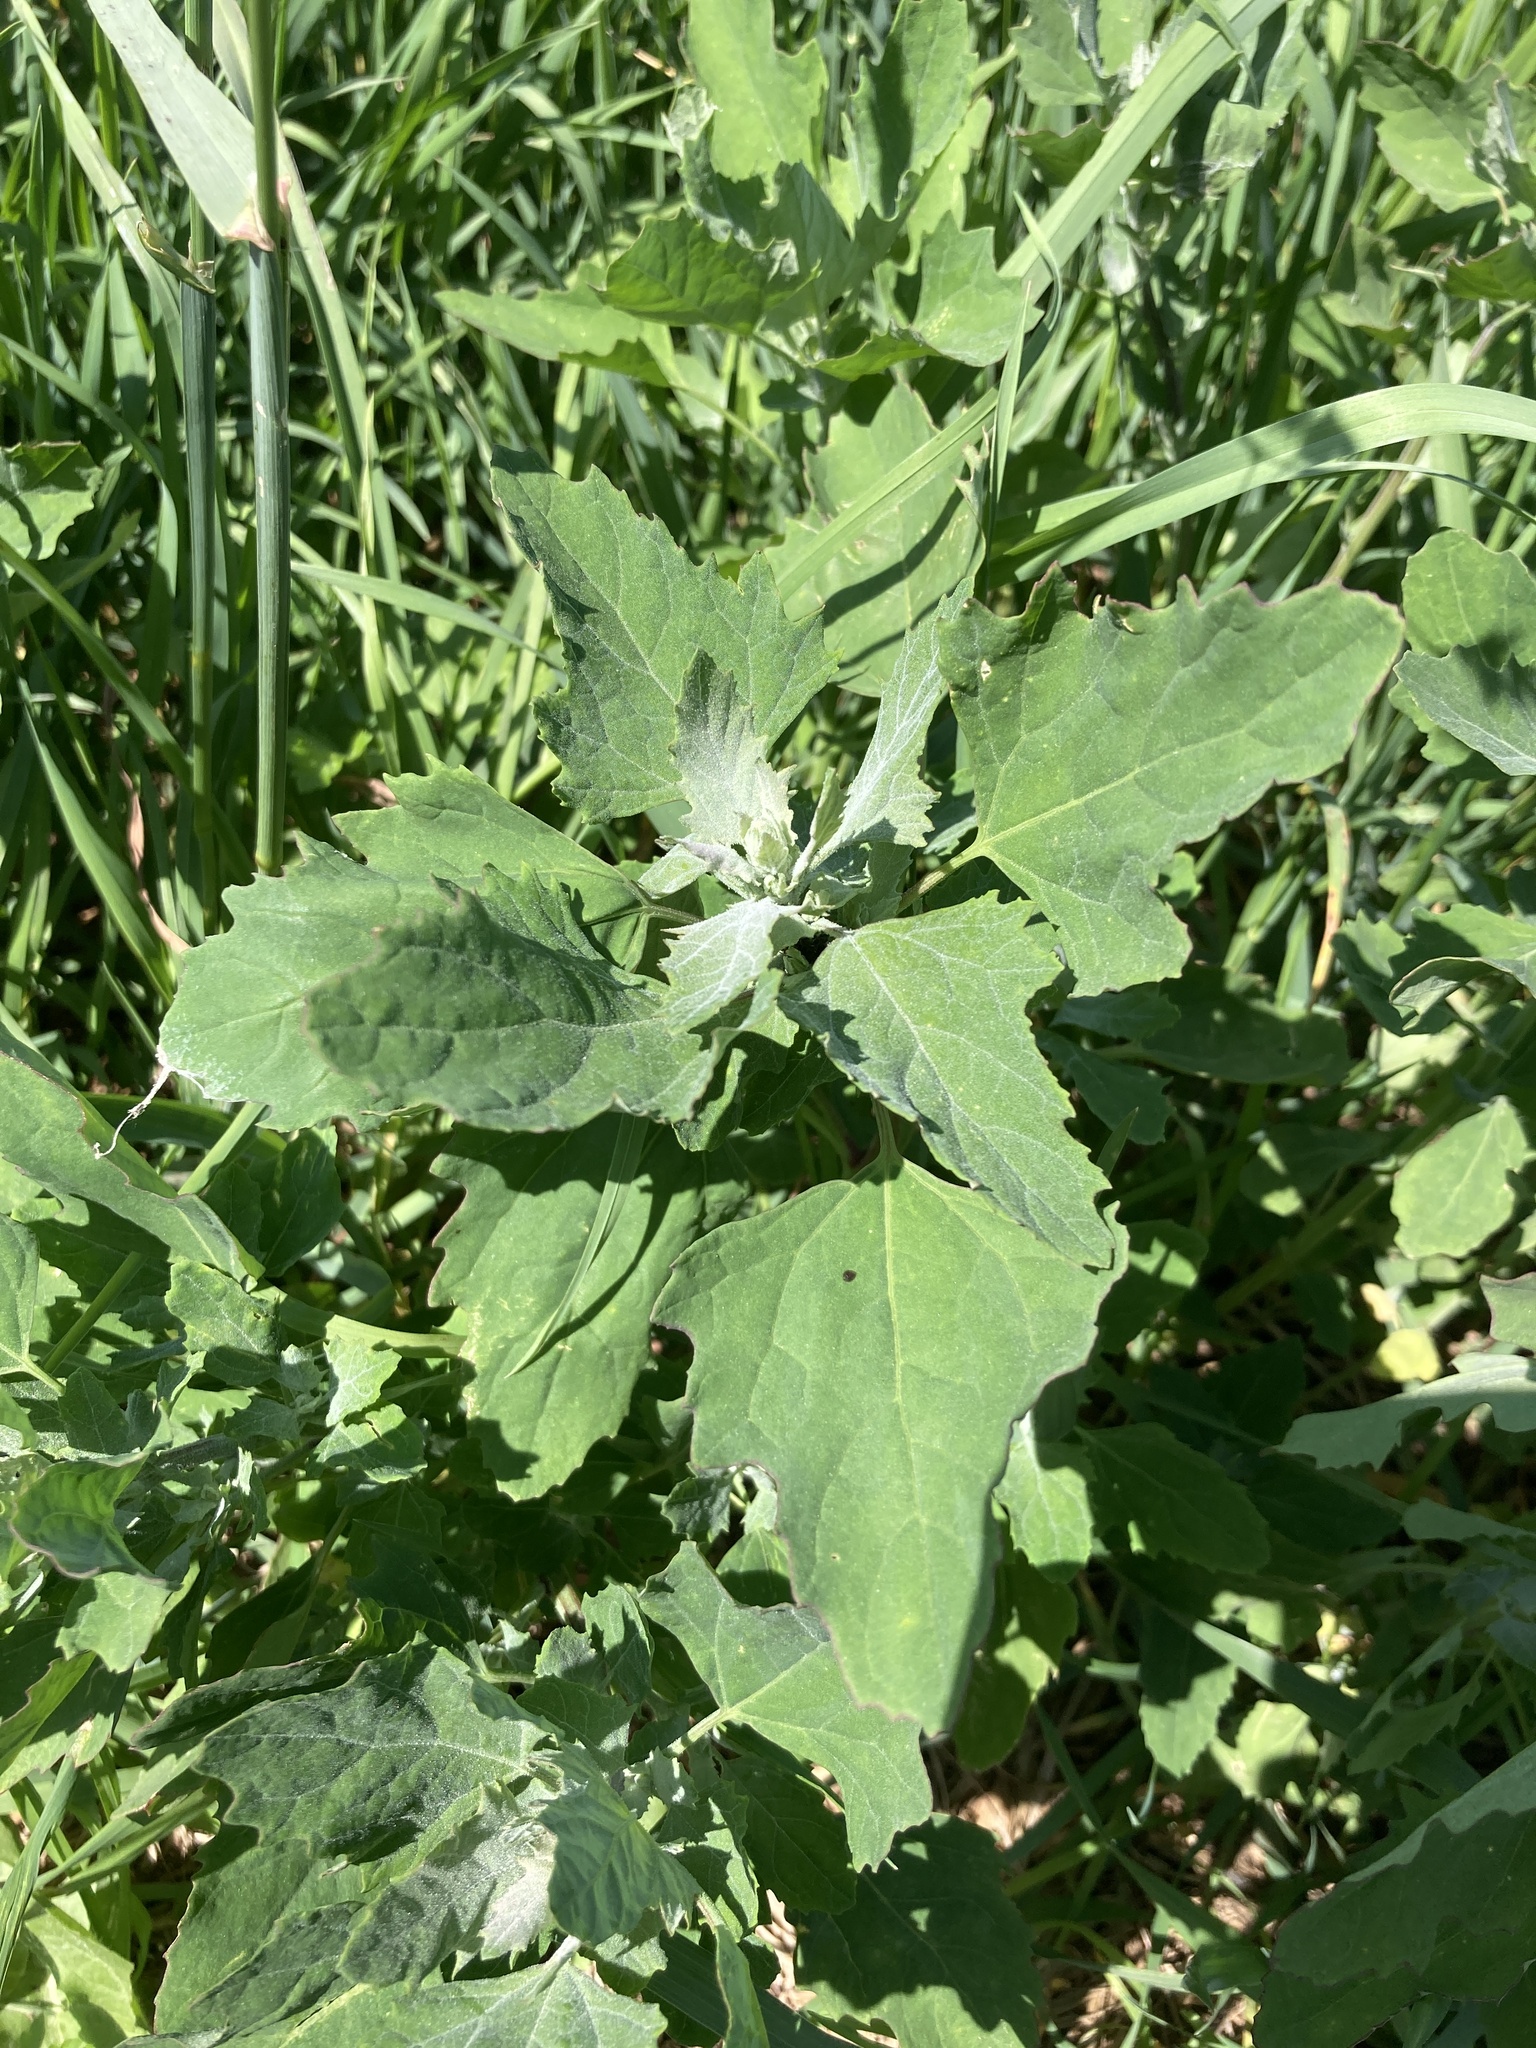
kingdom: Plantae
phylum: Tracheophyta
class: Magnoliopsida
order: Caryophyllales
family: Amaranthaceae
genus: Chenopodium
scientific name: Chenopodium album
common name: Fat-hen
